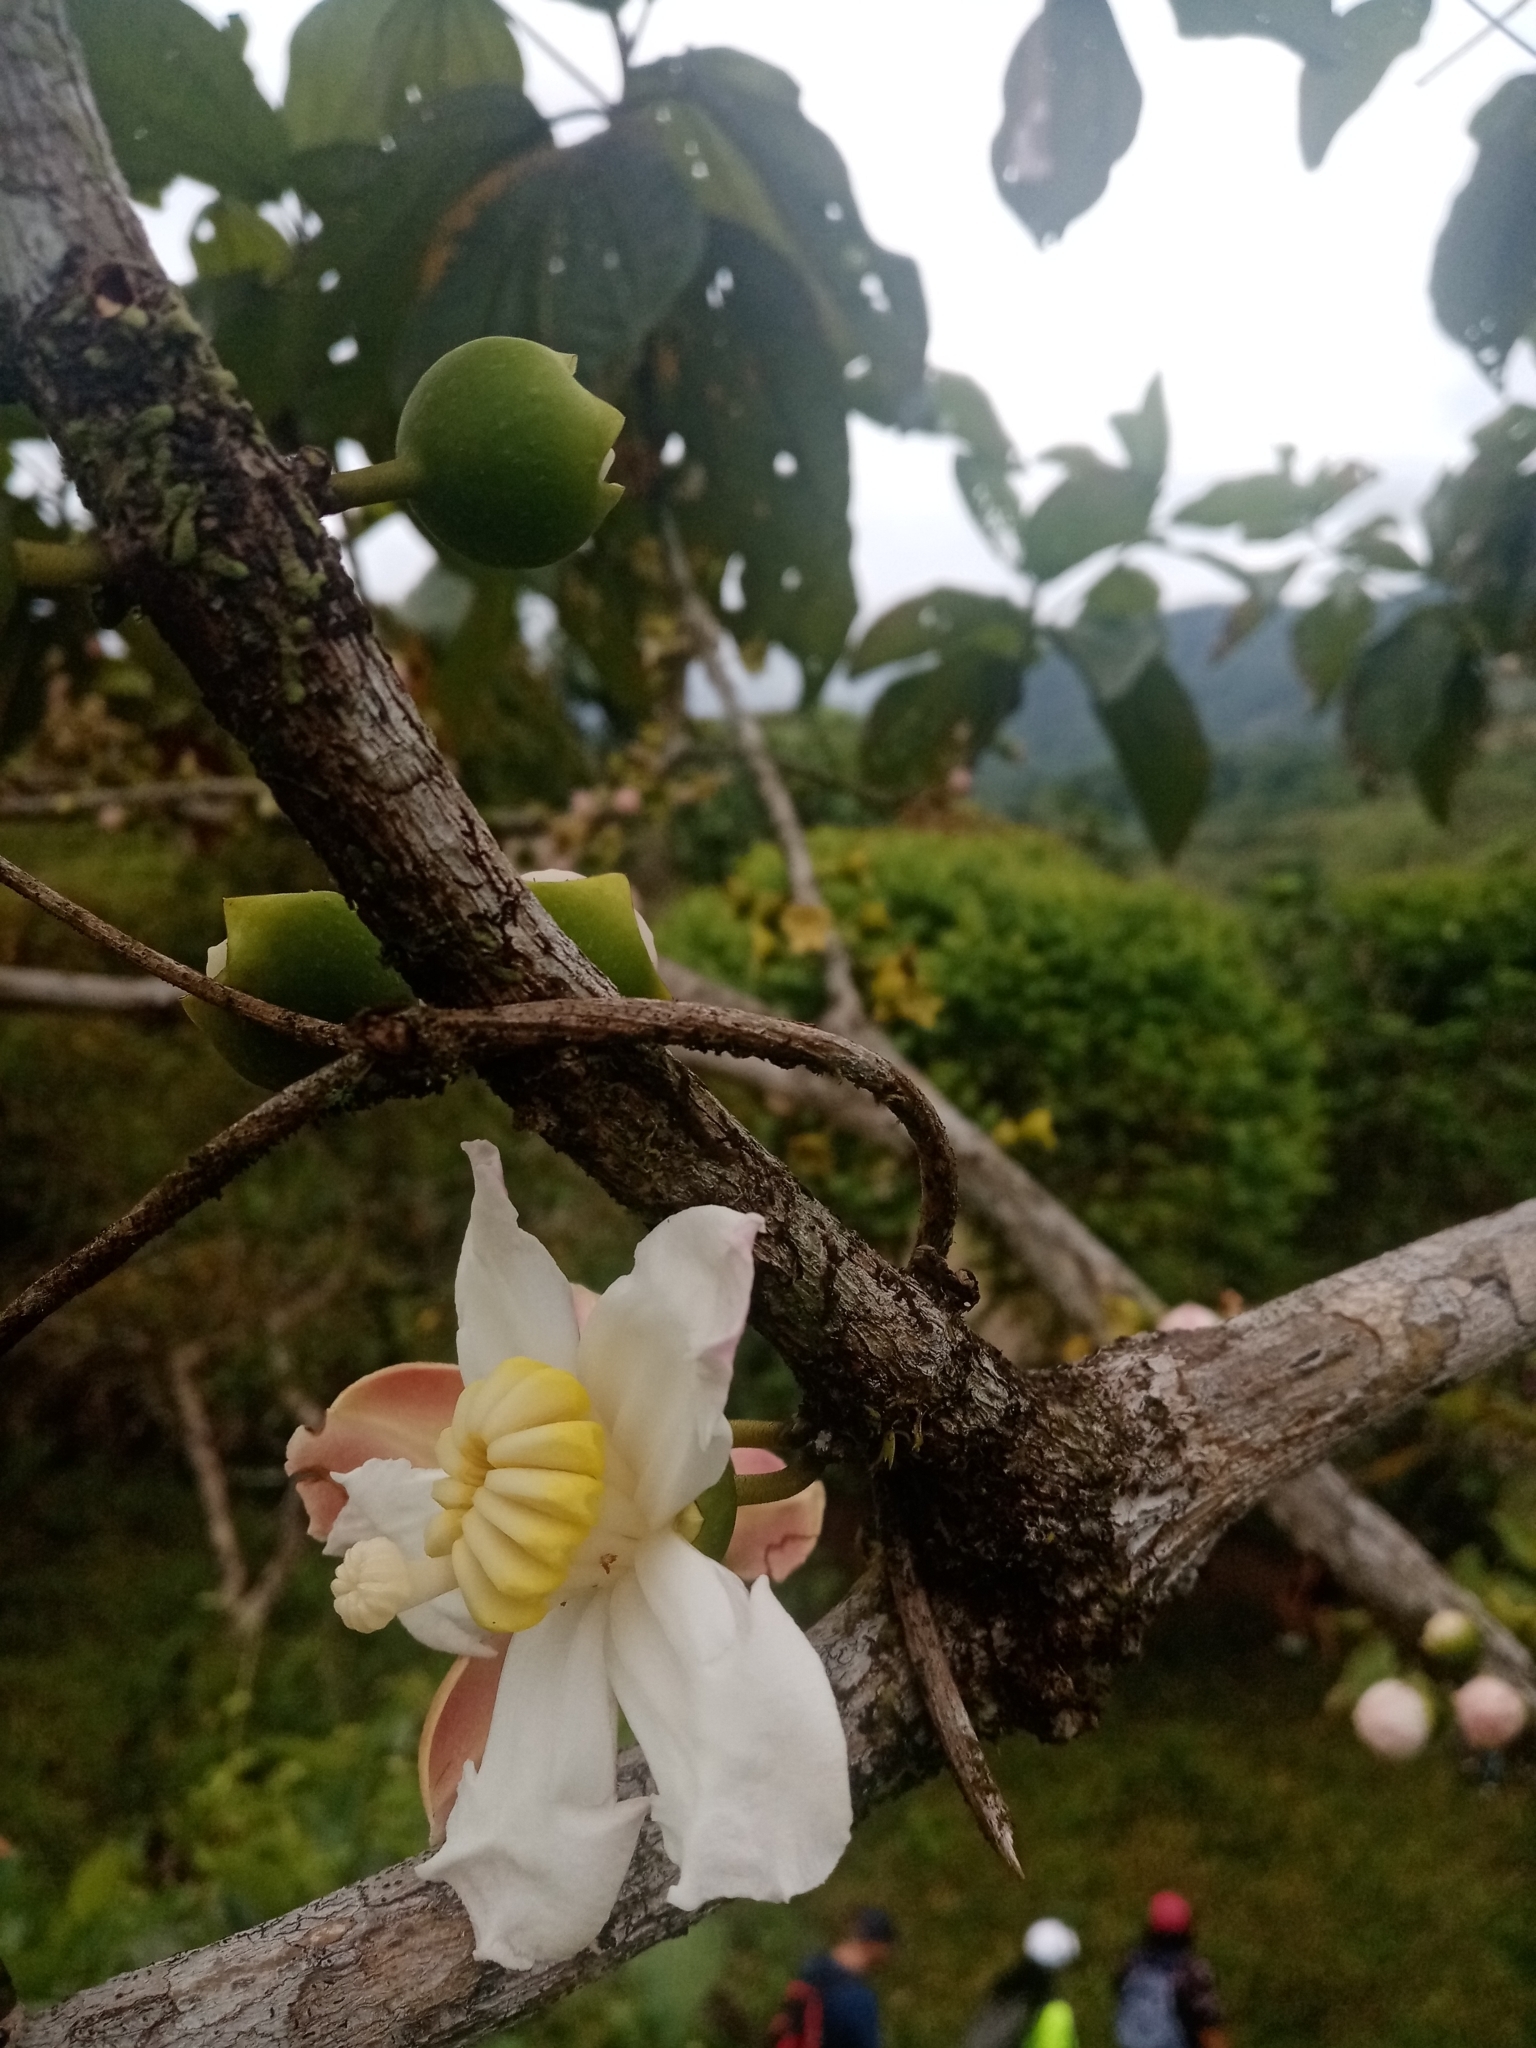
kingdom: Plantae
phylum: Tracheophyta
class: Magnoliopsida
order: Myrtales
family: Melastomataceae
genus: Bellucia
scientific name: Bellucia pentamera
